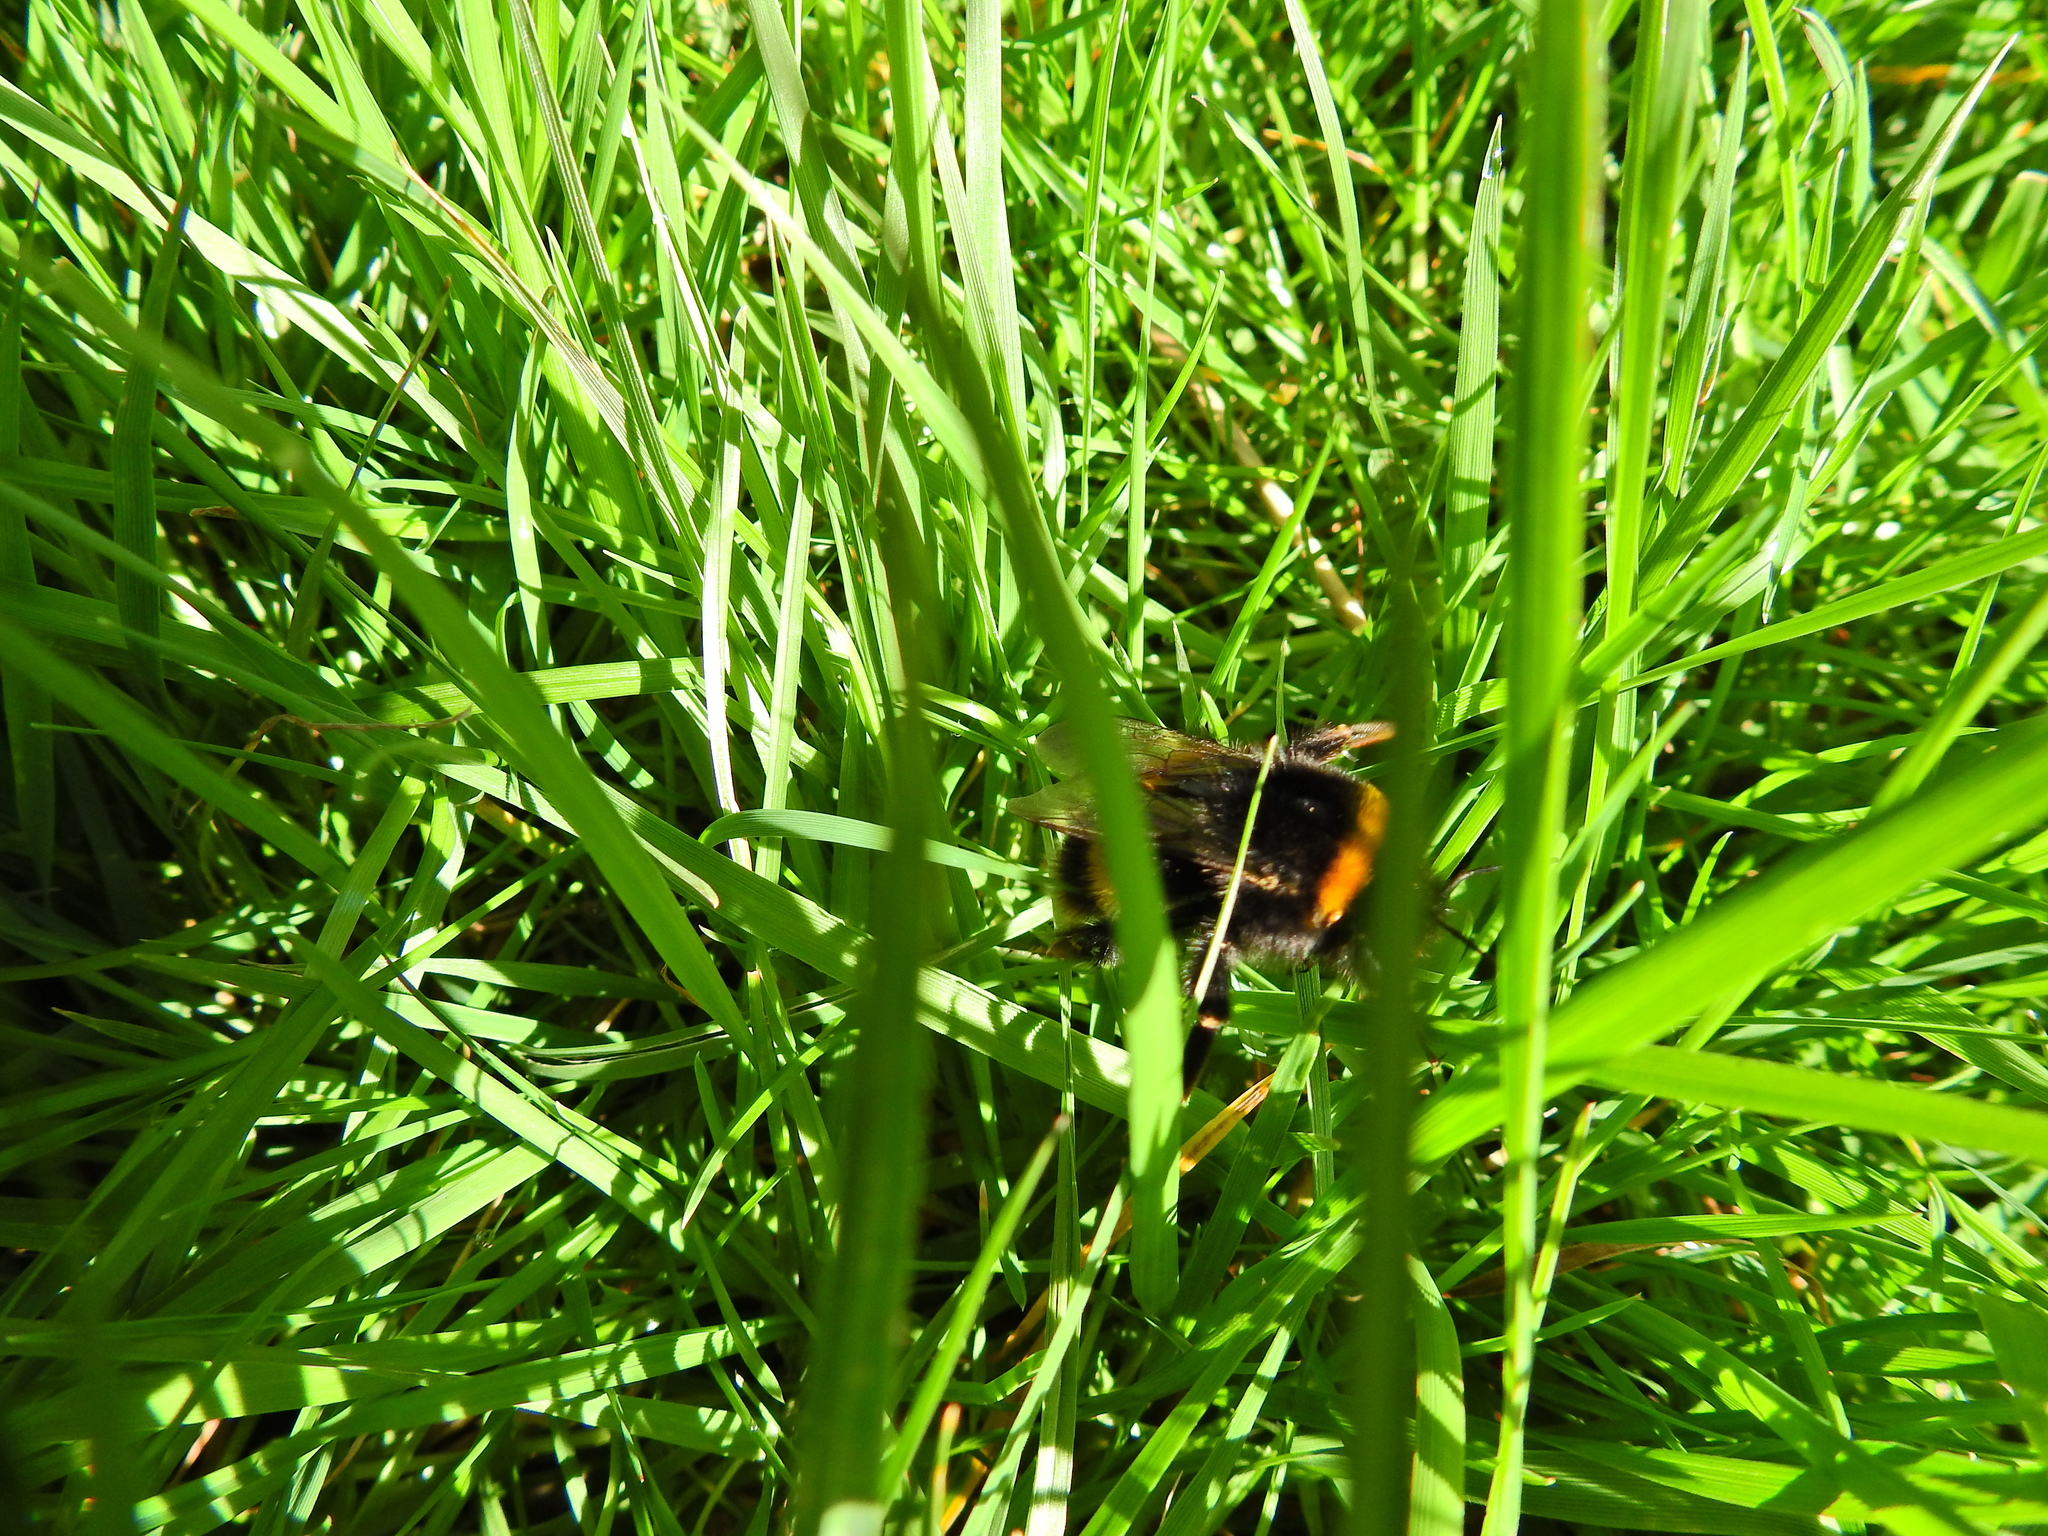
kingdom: Animalia
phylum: Arthropoda
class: Insecta
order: Hymenoptera
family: Apidae
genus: Bombus
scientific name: Bombus terrestris
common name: Buff-tailed bumblebee
